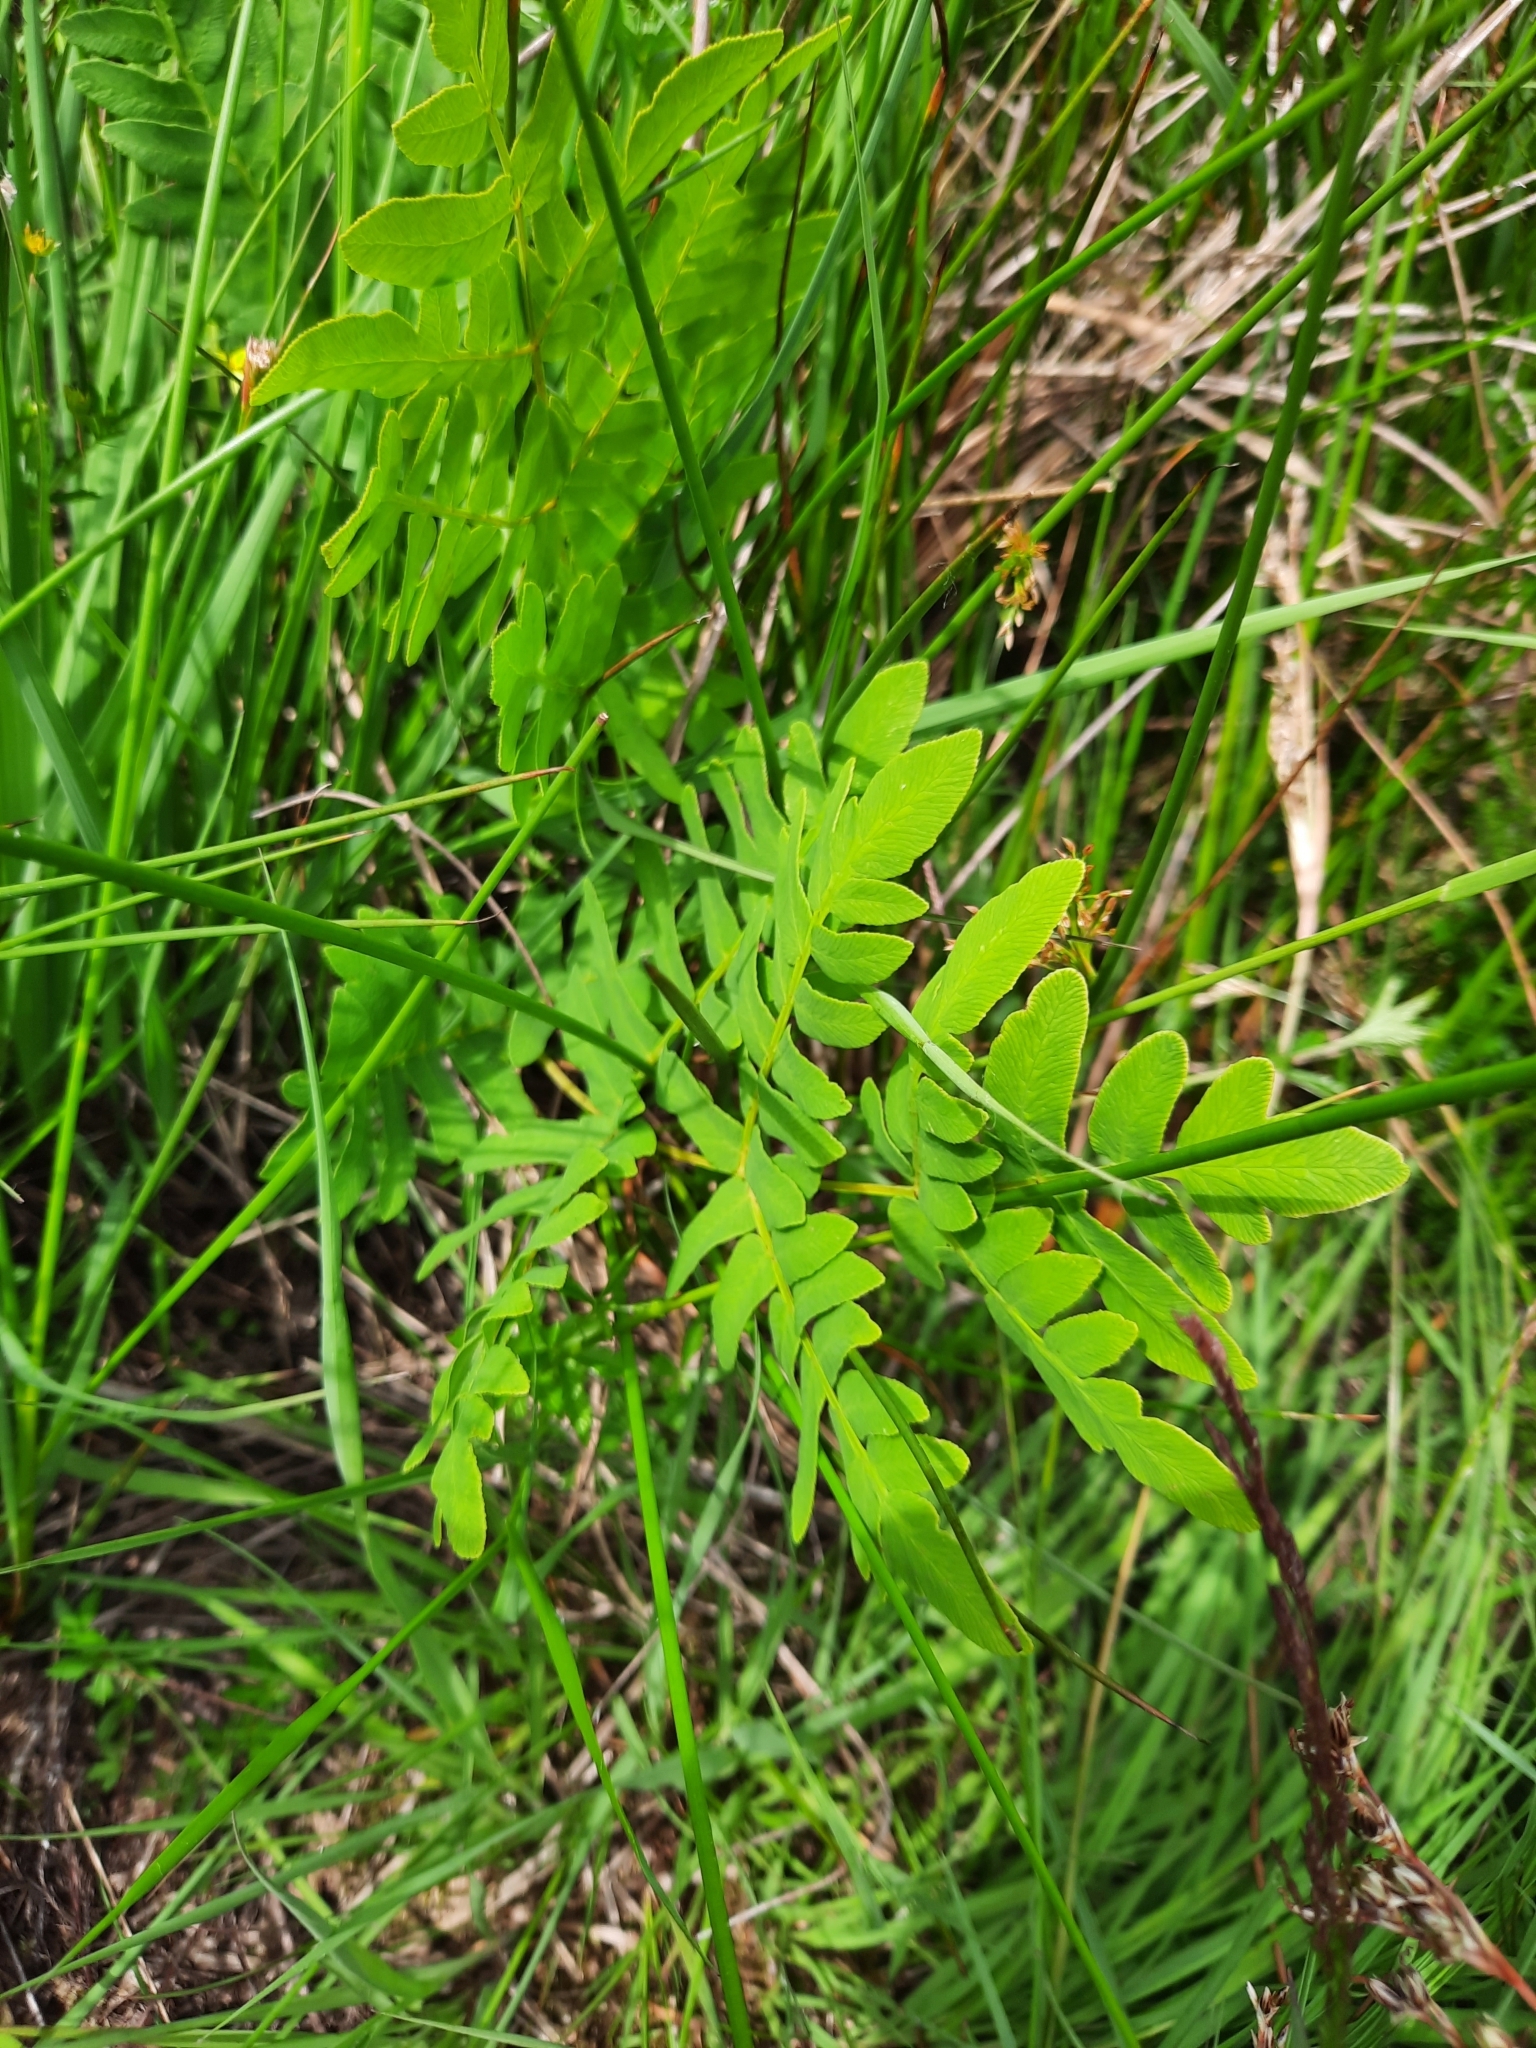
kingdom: Plantae
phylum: Tracheophyta
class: Polypodiopsida
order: Osmundales
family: Osmundaceae
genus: Osmunda
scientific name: Osmunda regalis
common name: Royal fern
